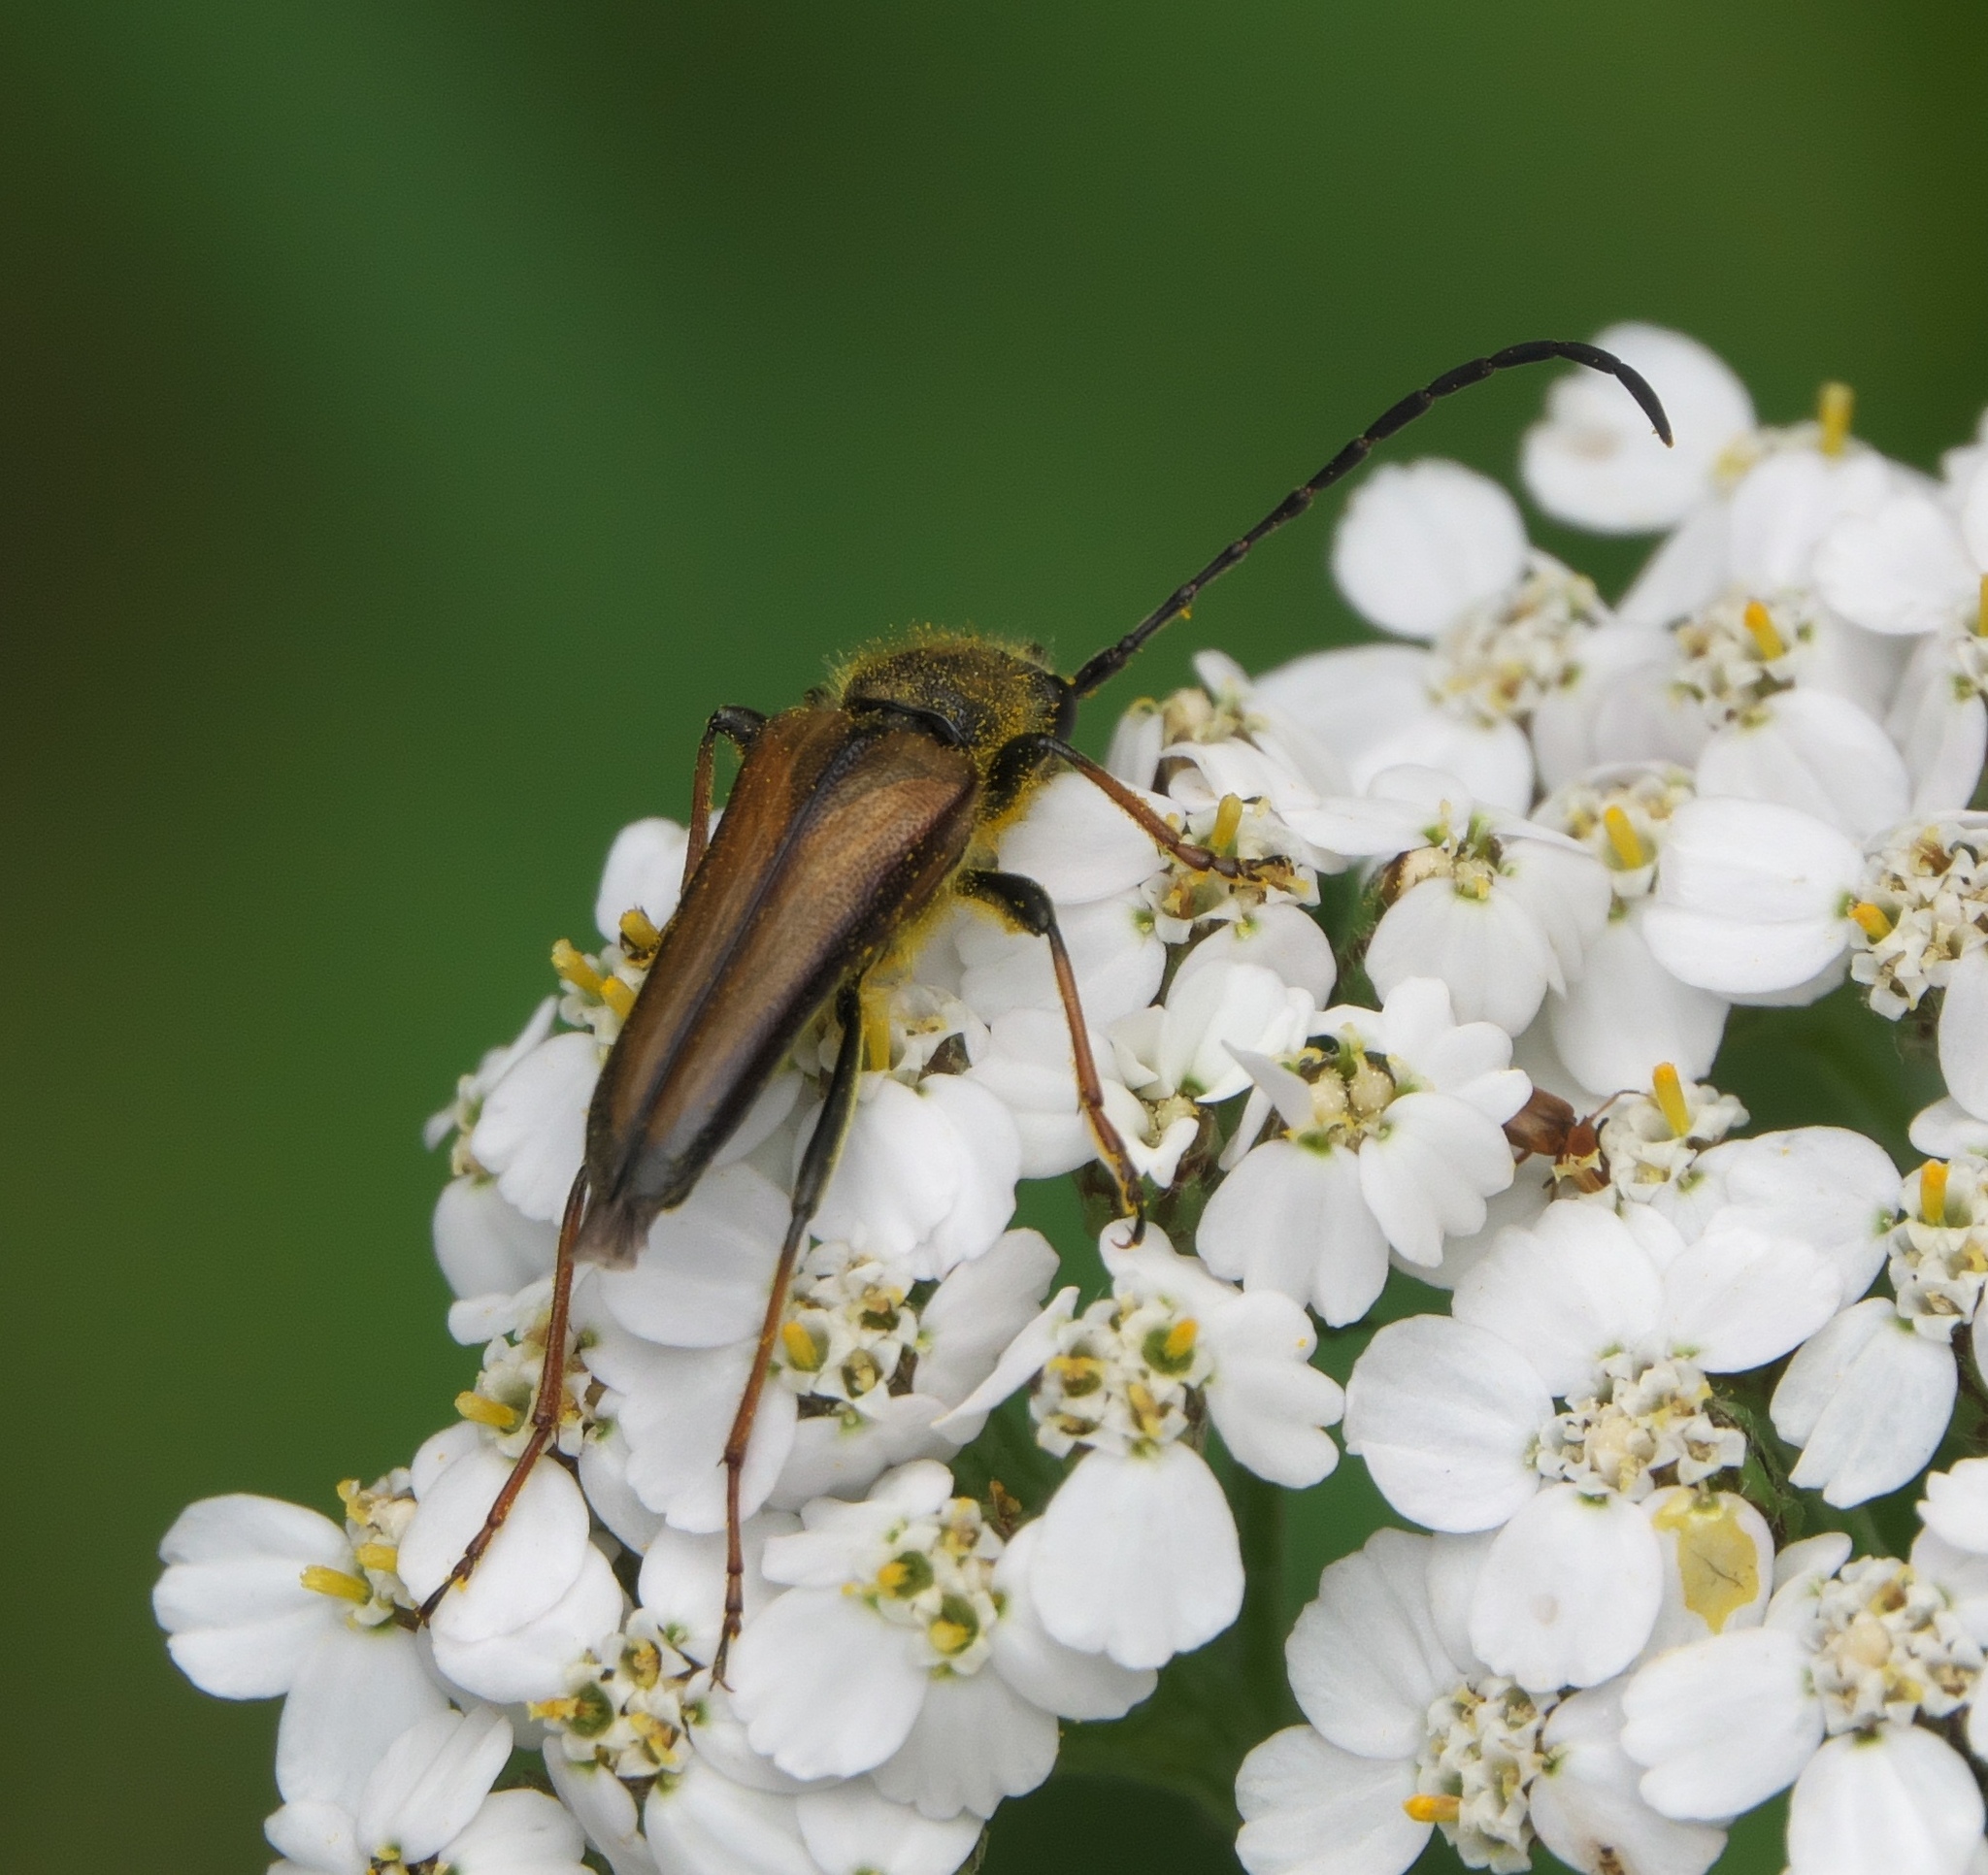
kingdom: Animalia
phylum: Arthropoda
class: Insecta
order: Coleoptera
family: Cerambycidae
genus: Lepturobosca
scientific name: Lepturobosca
